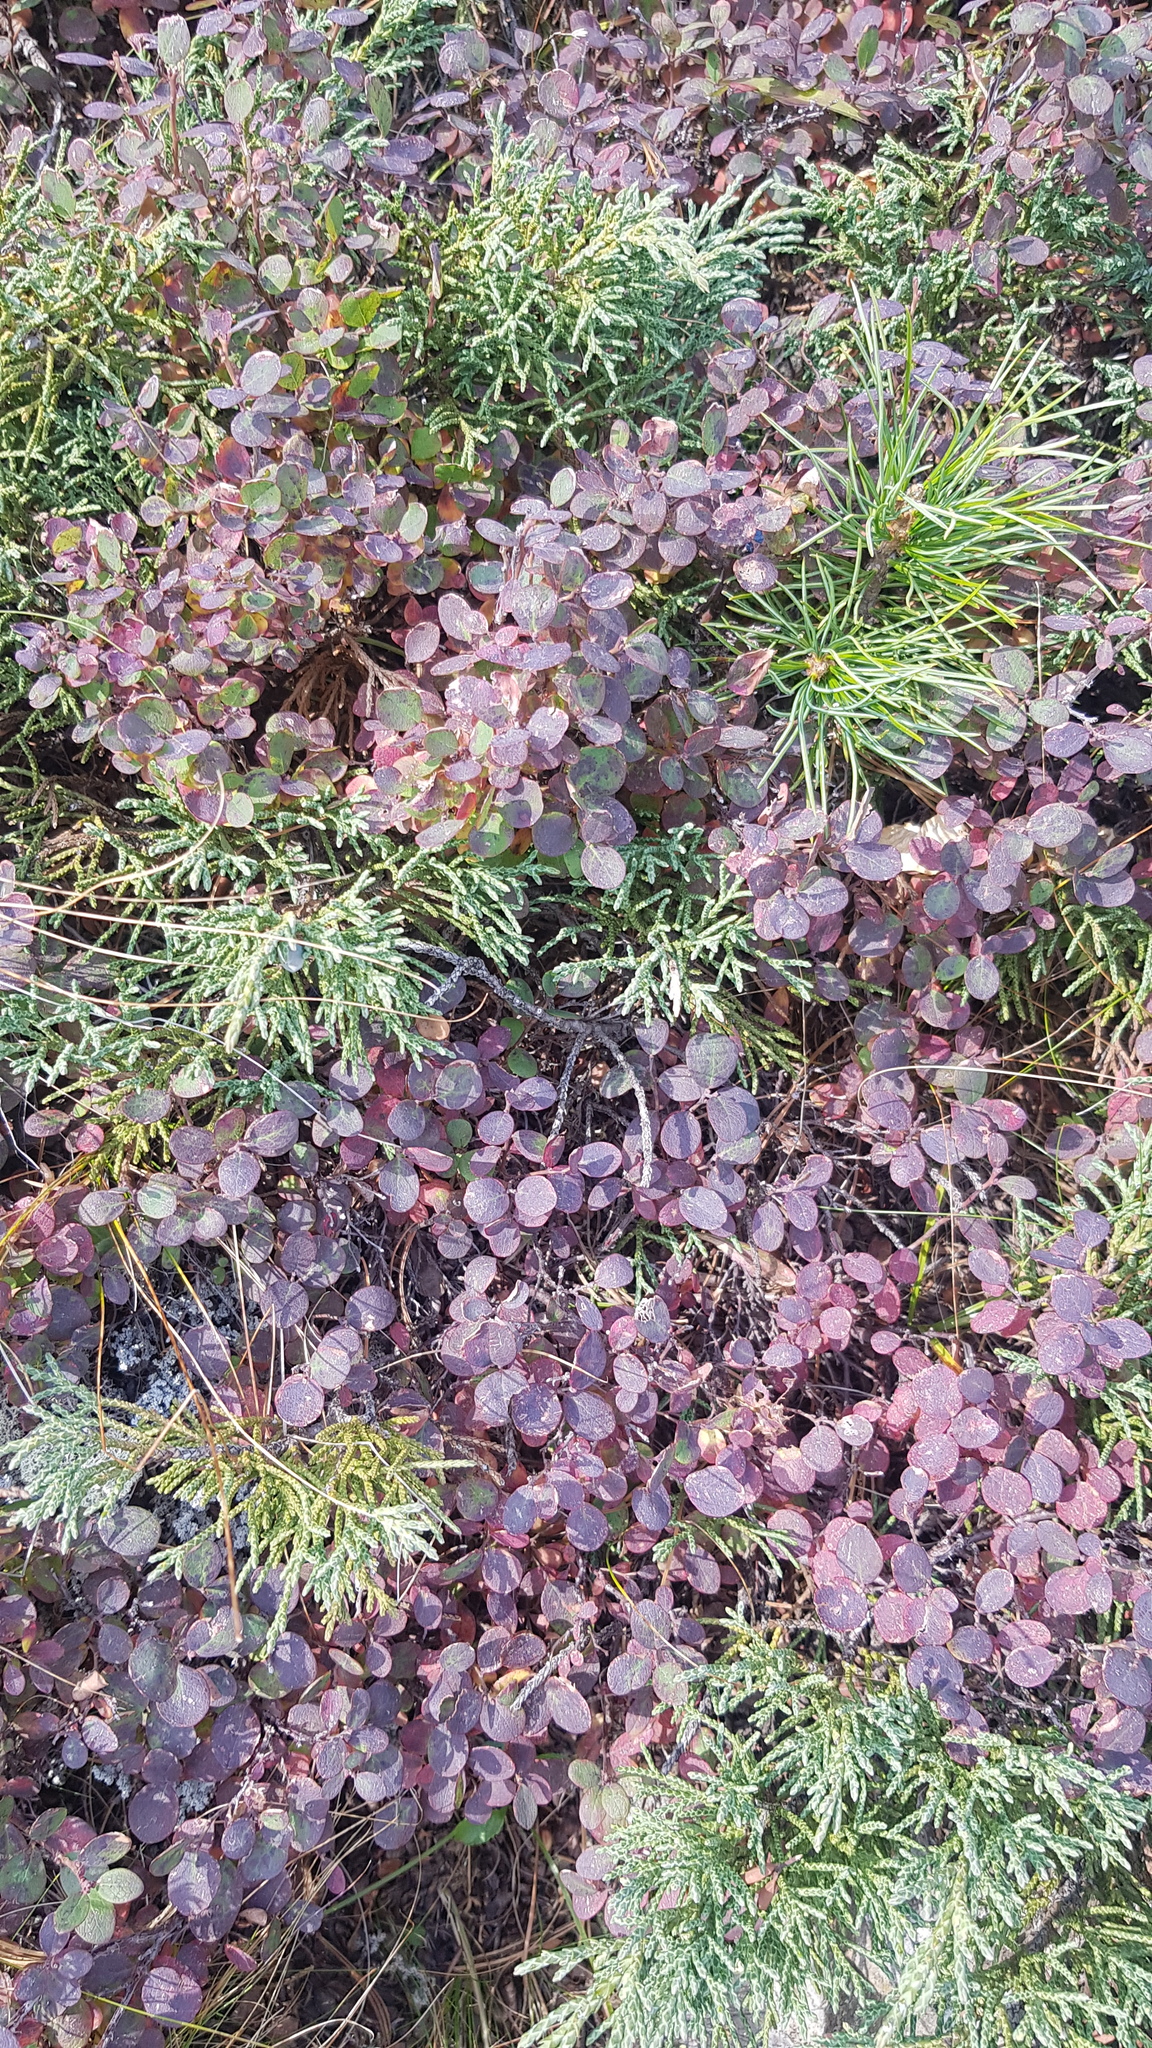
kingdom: Plantae
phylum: Tracheophyta
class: Magnoliopsida
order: Ericales
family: Ericaceae
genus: Vaccinium
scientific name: Vaccinium uliginosum
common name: Bog bilberry
